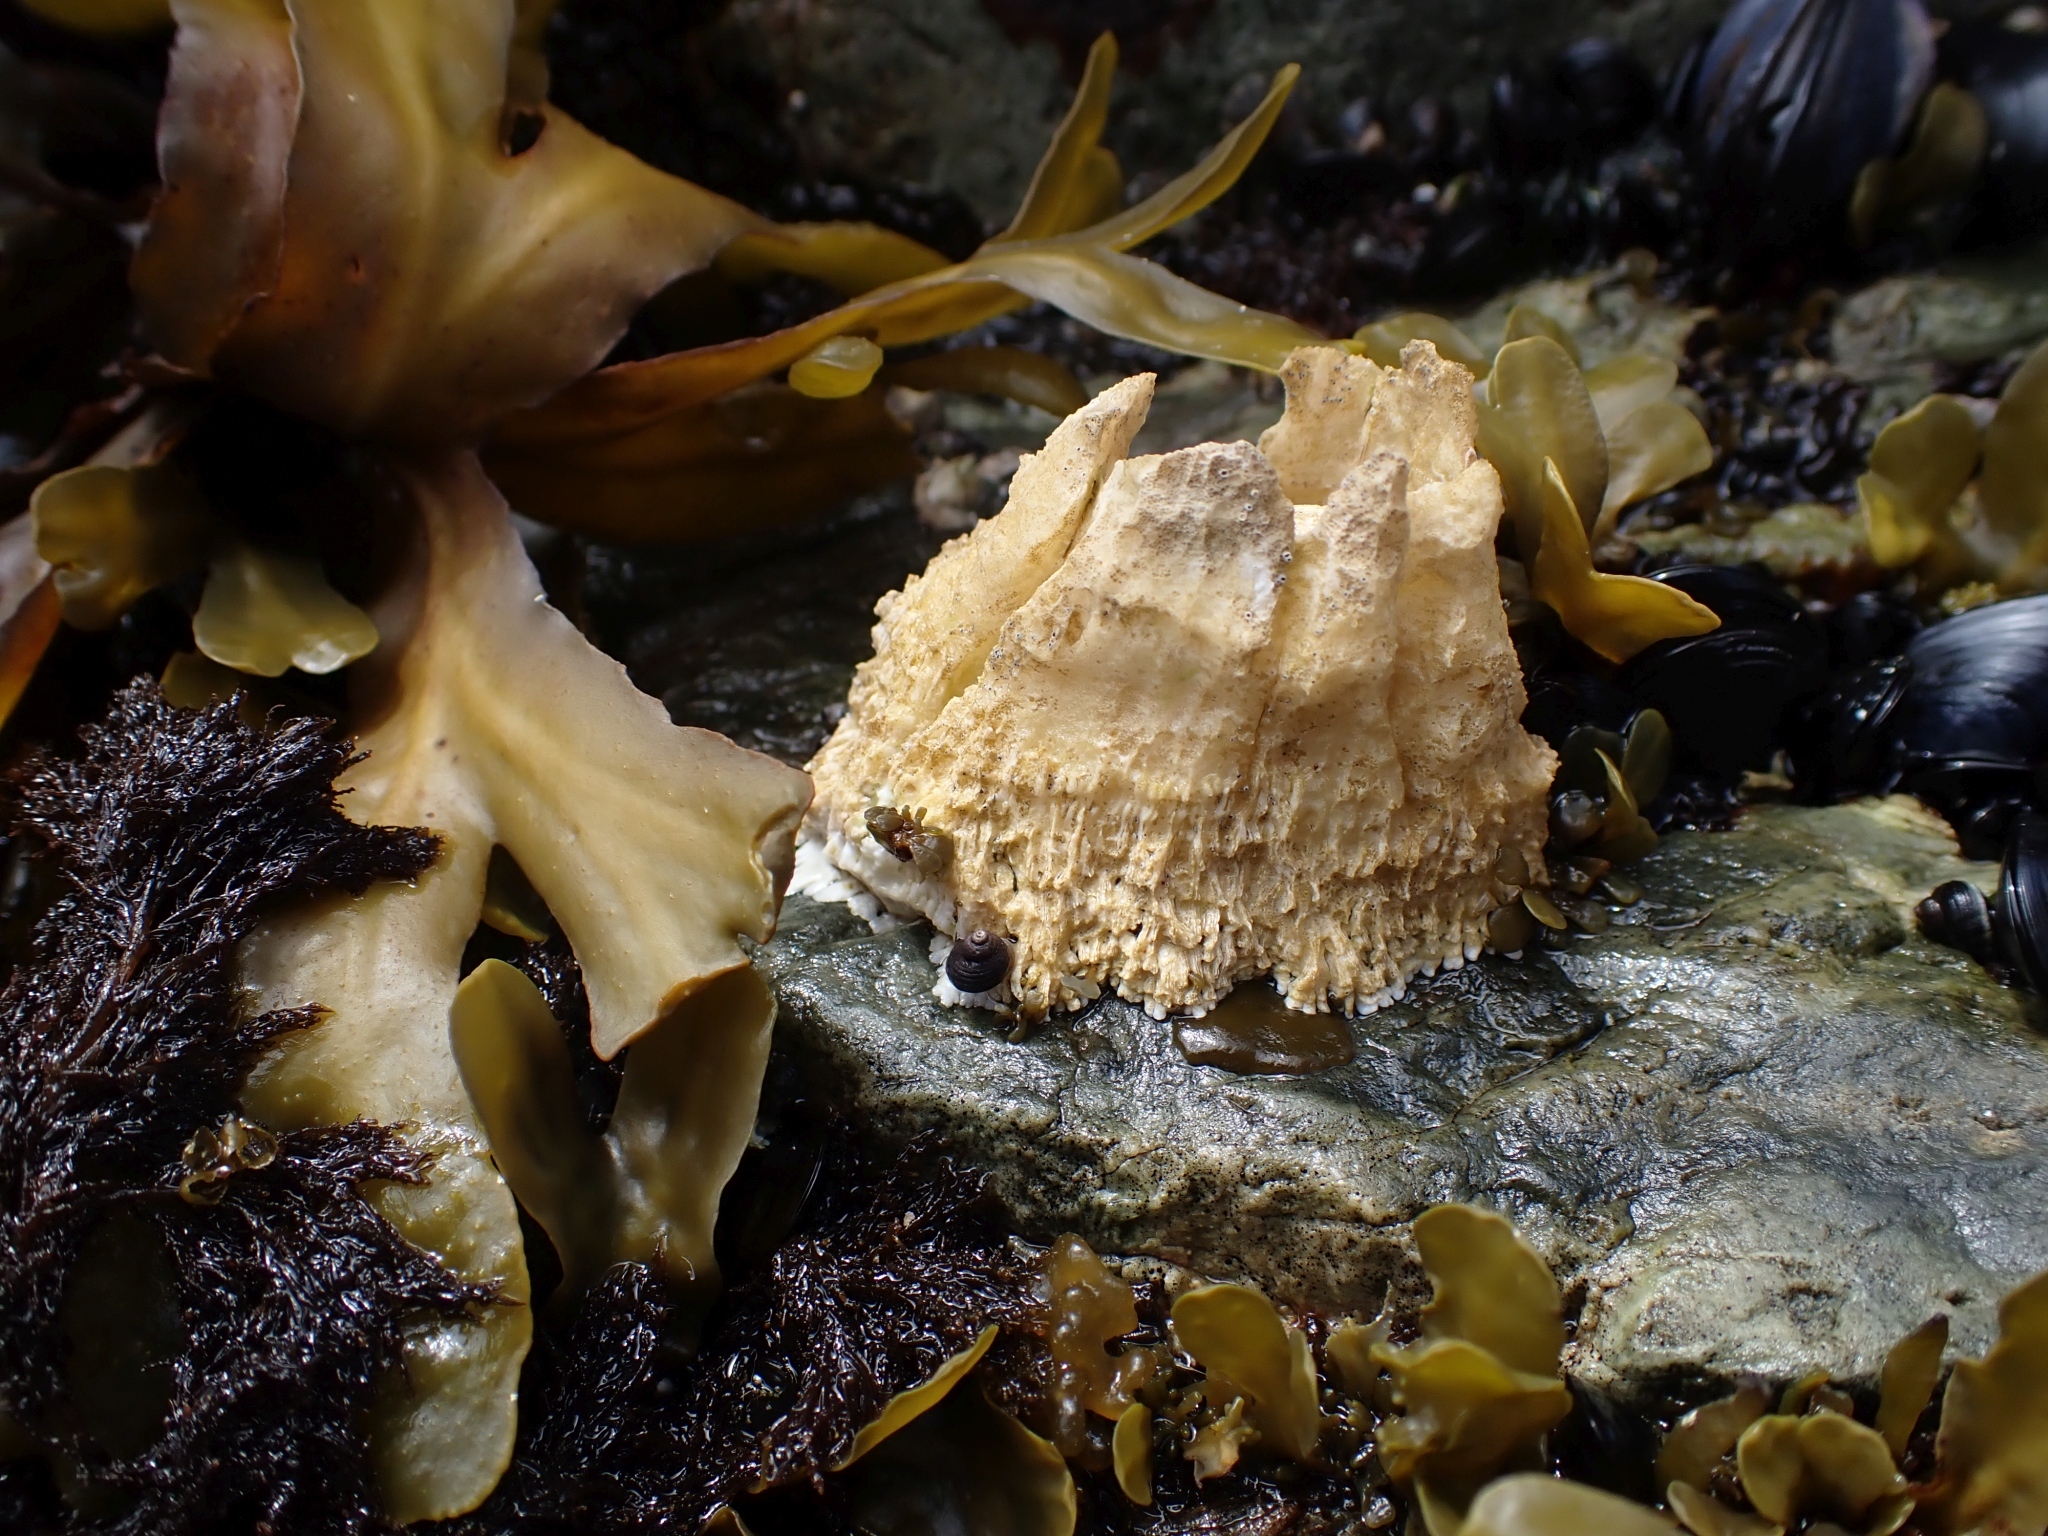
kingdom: Animalia
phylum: Arthropoda
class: Maxillopoda
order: Sessilia
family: Archaeobalanidae
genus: Semibalanus
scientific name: Semibalanus cariosus
